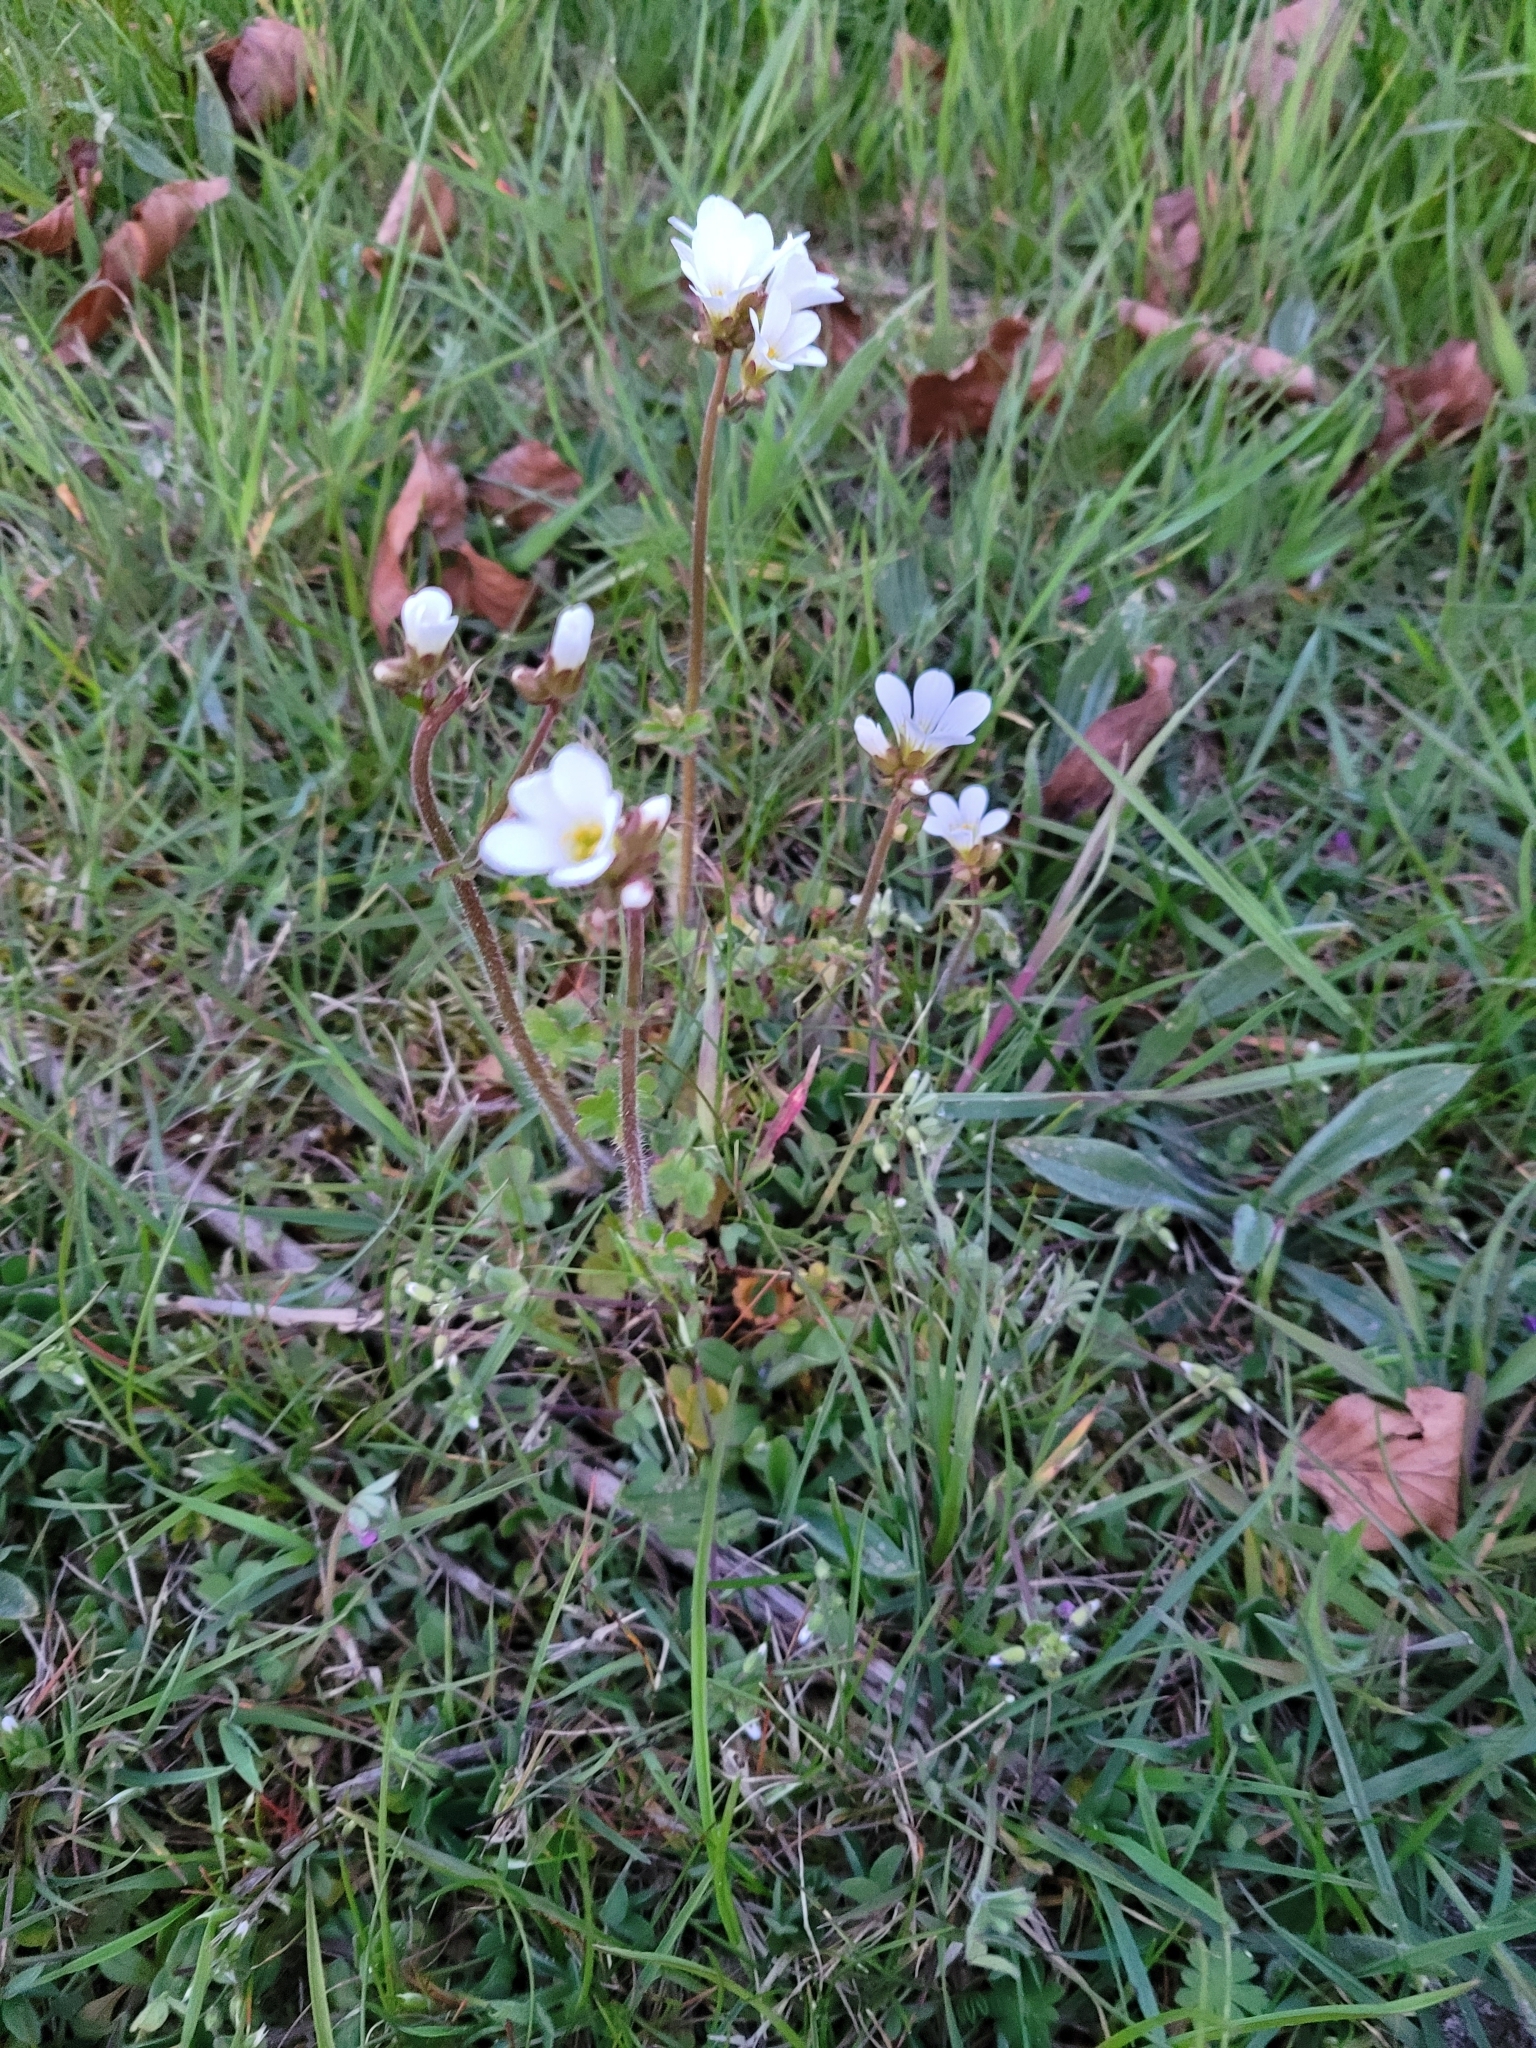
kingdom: Plantae
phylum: Tracheophyta
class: Magnoliopsida
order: Saxifragales
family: Saxifragaceae
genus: Saxifraga
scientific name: Saxifraga granulata
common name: Meadow saxifrage
